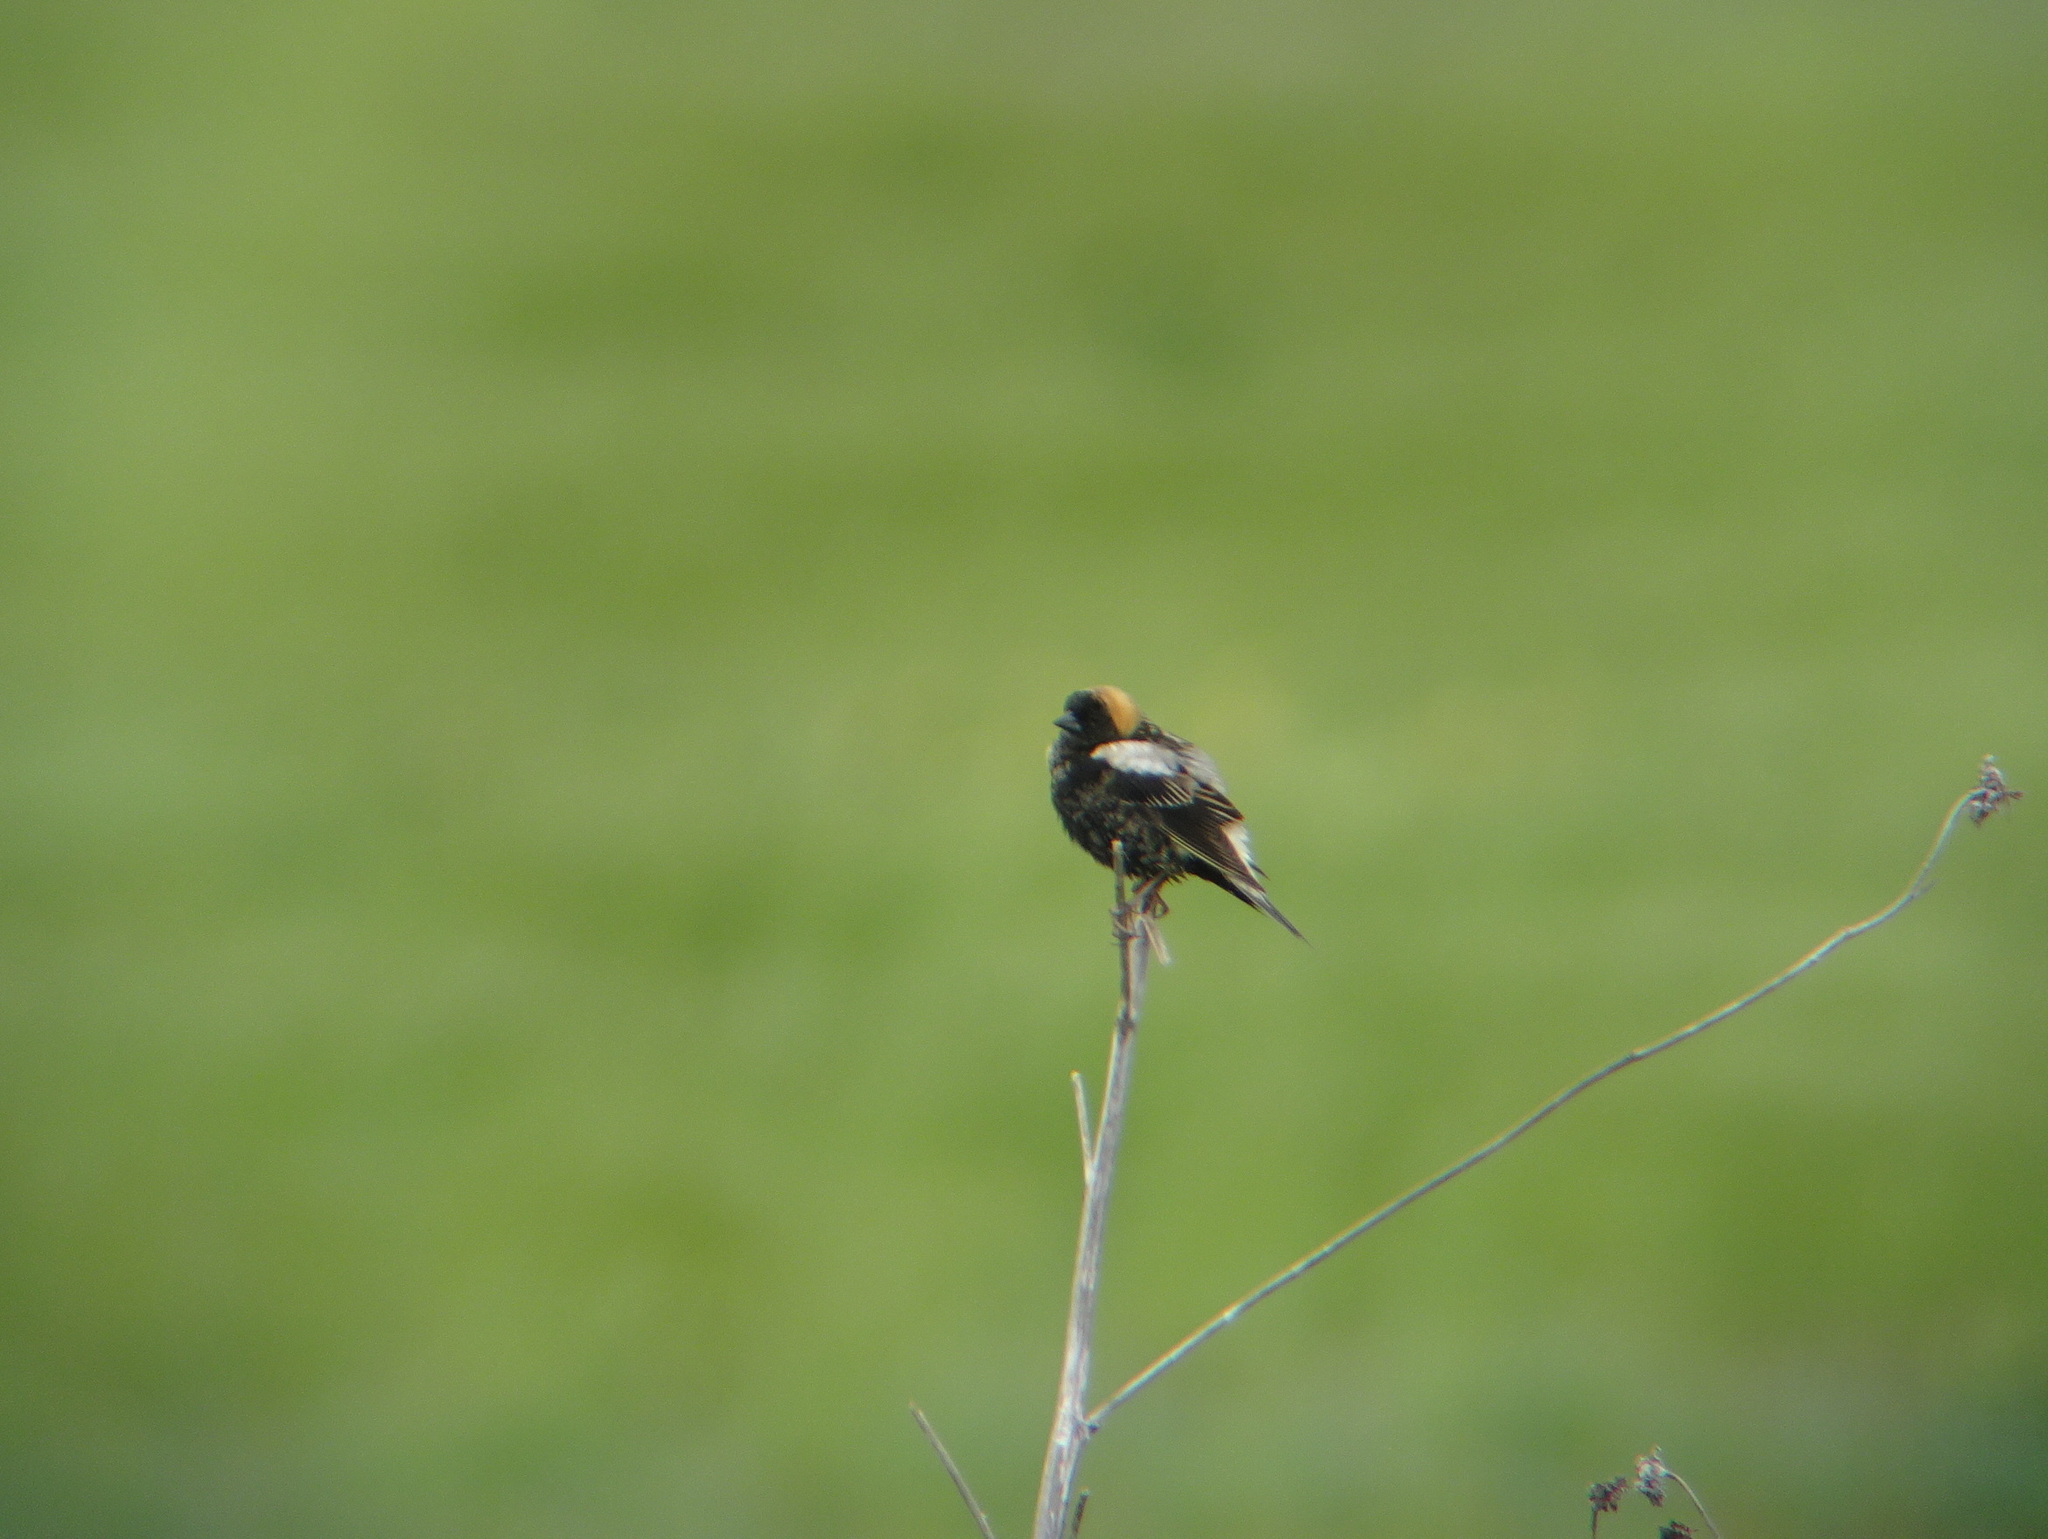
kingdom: Animalia
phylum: Chordata
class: Aves
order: Passeriformes
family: Icteridae
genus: Dolichonyx
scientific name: Dolichonyx oryzivorus
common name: Bobolink
